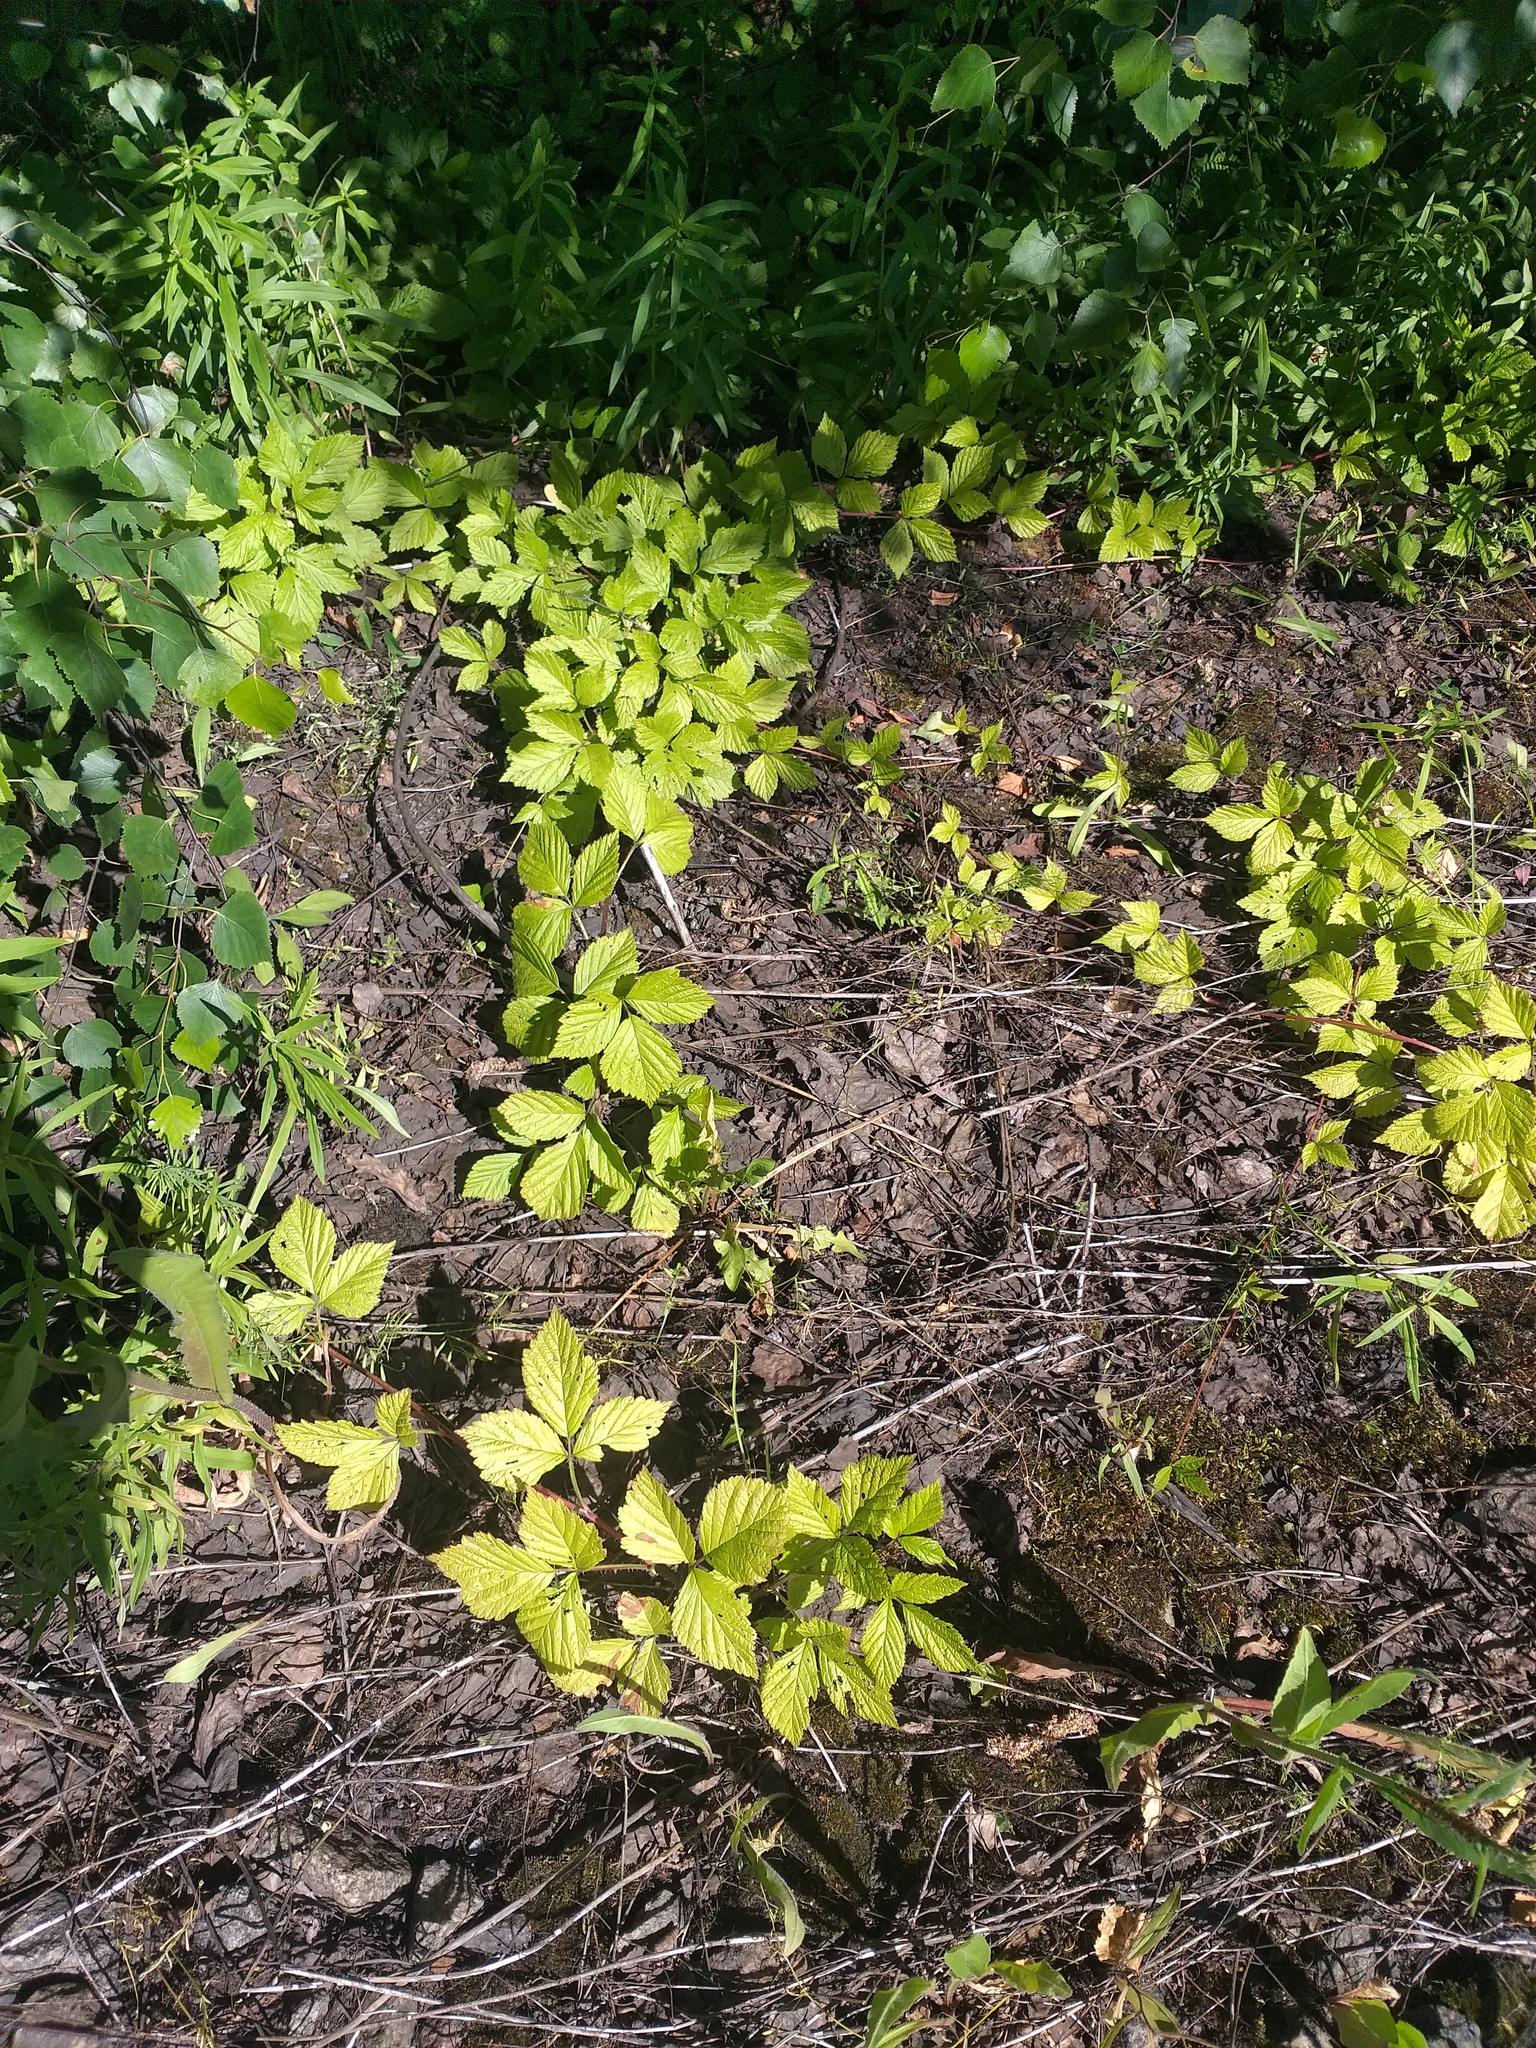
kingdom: Plantae
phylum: Tracheophyta
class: Magnoliopsida
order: Rosales
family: Rosaceae
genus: Rubus
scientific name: Rubus saxatilis
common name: Stone bramble
